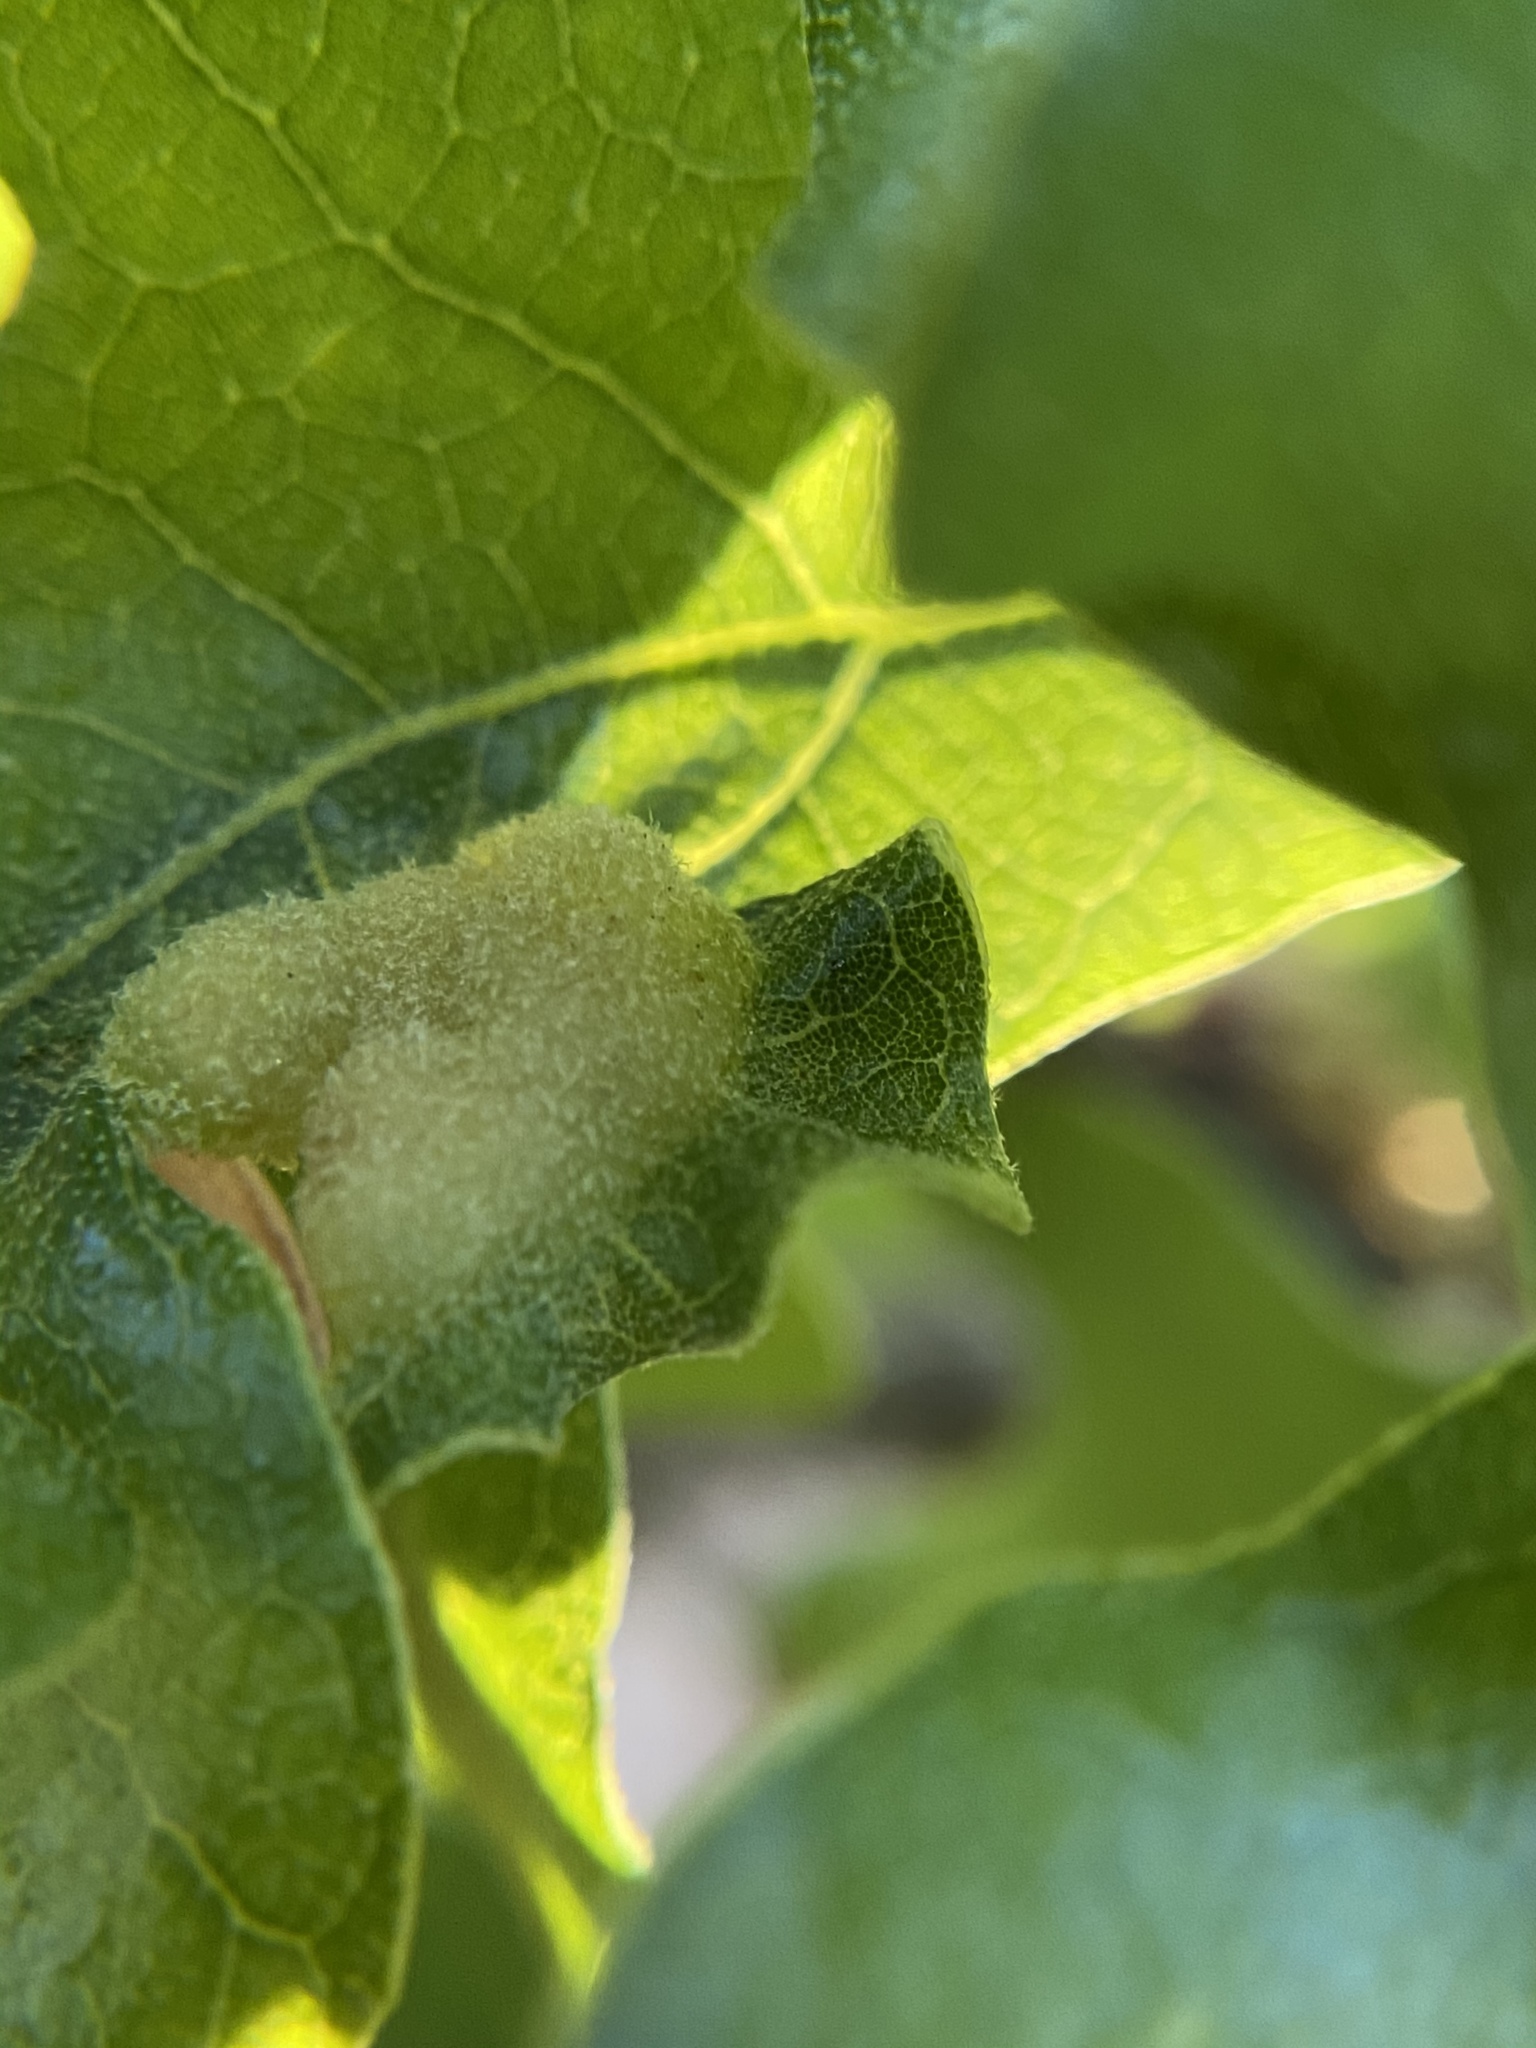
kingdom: Animalia
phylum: Arthropoda
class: Insecta
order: Hymenoptera
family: Cynipidae
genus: Neuroterus
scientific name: Neuroterus quercusirregularis
